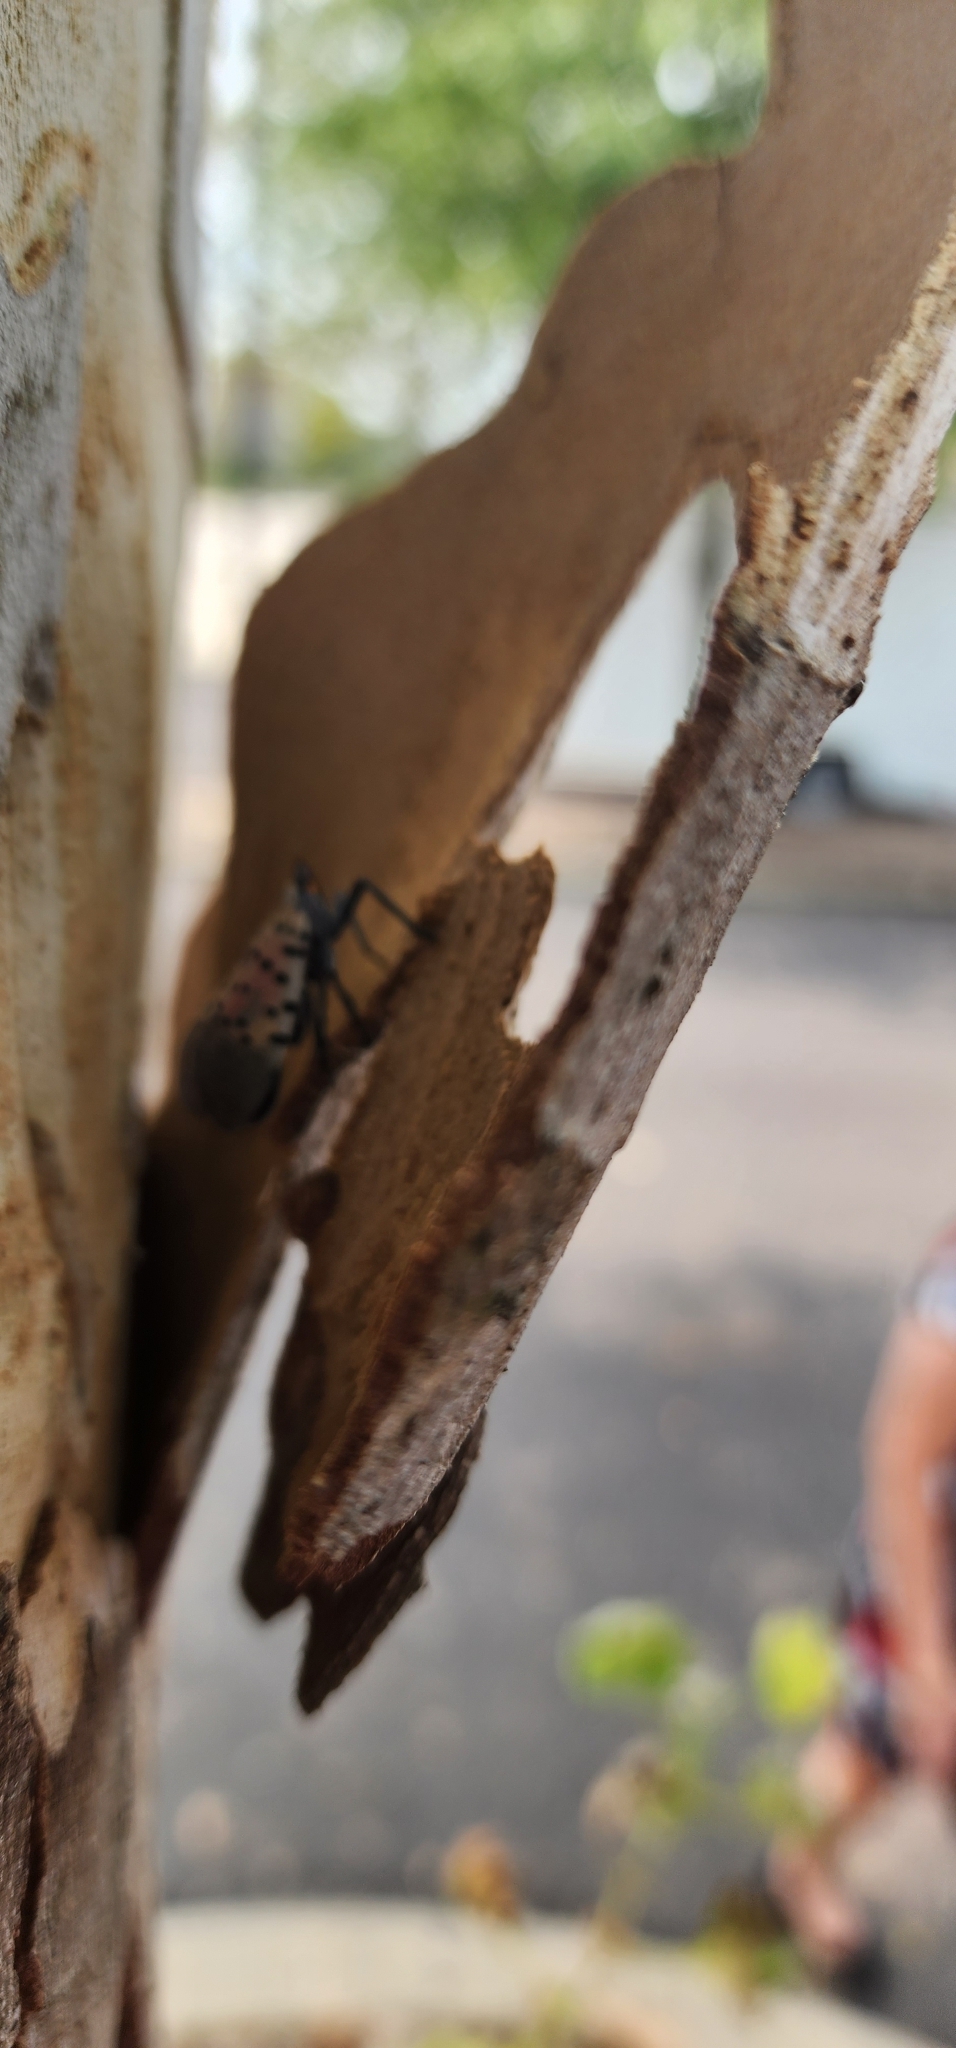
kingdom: Animalia
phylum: Arthropoda
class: Insecta
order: Hemiptera
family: Fulgoridae
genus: Lycorma
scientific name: Lycorma delicatula
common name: Spotted lanternfly
